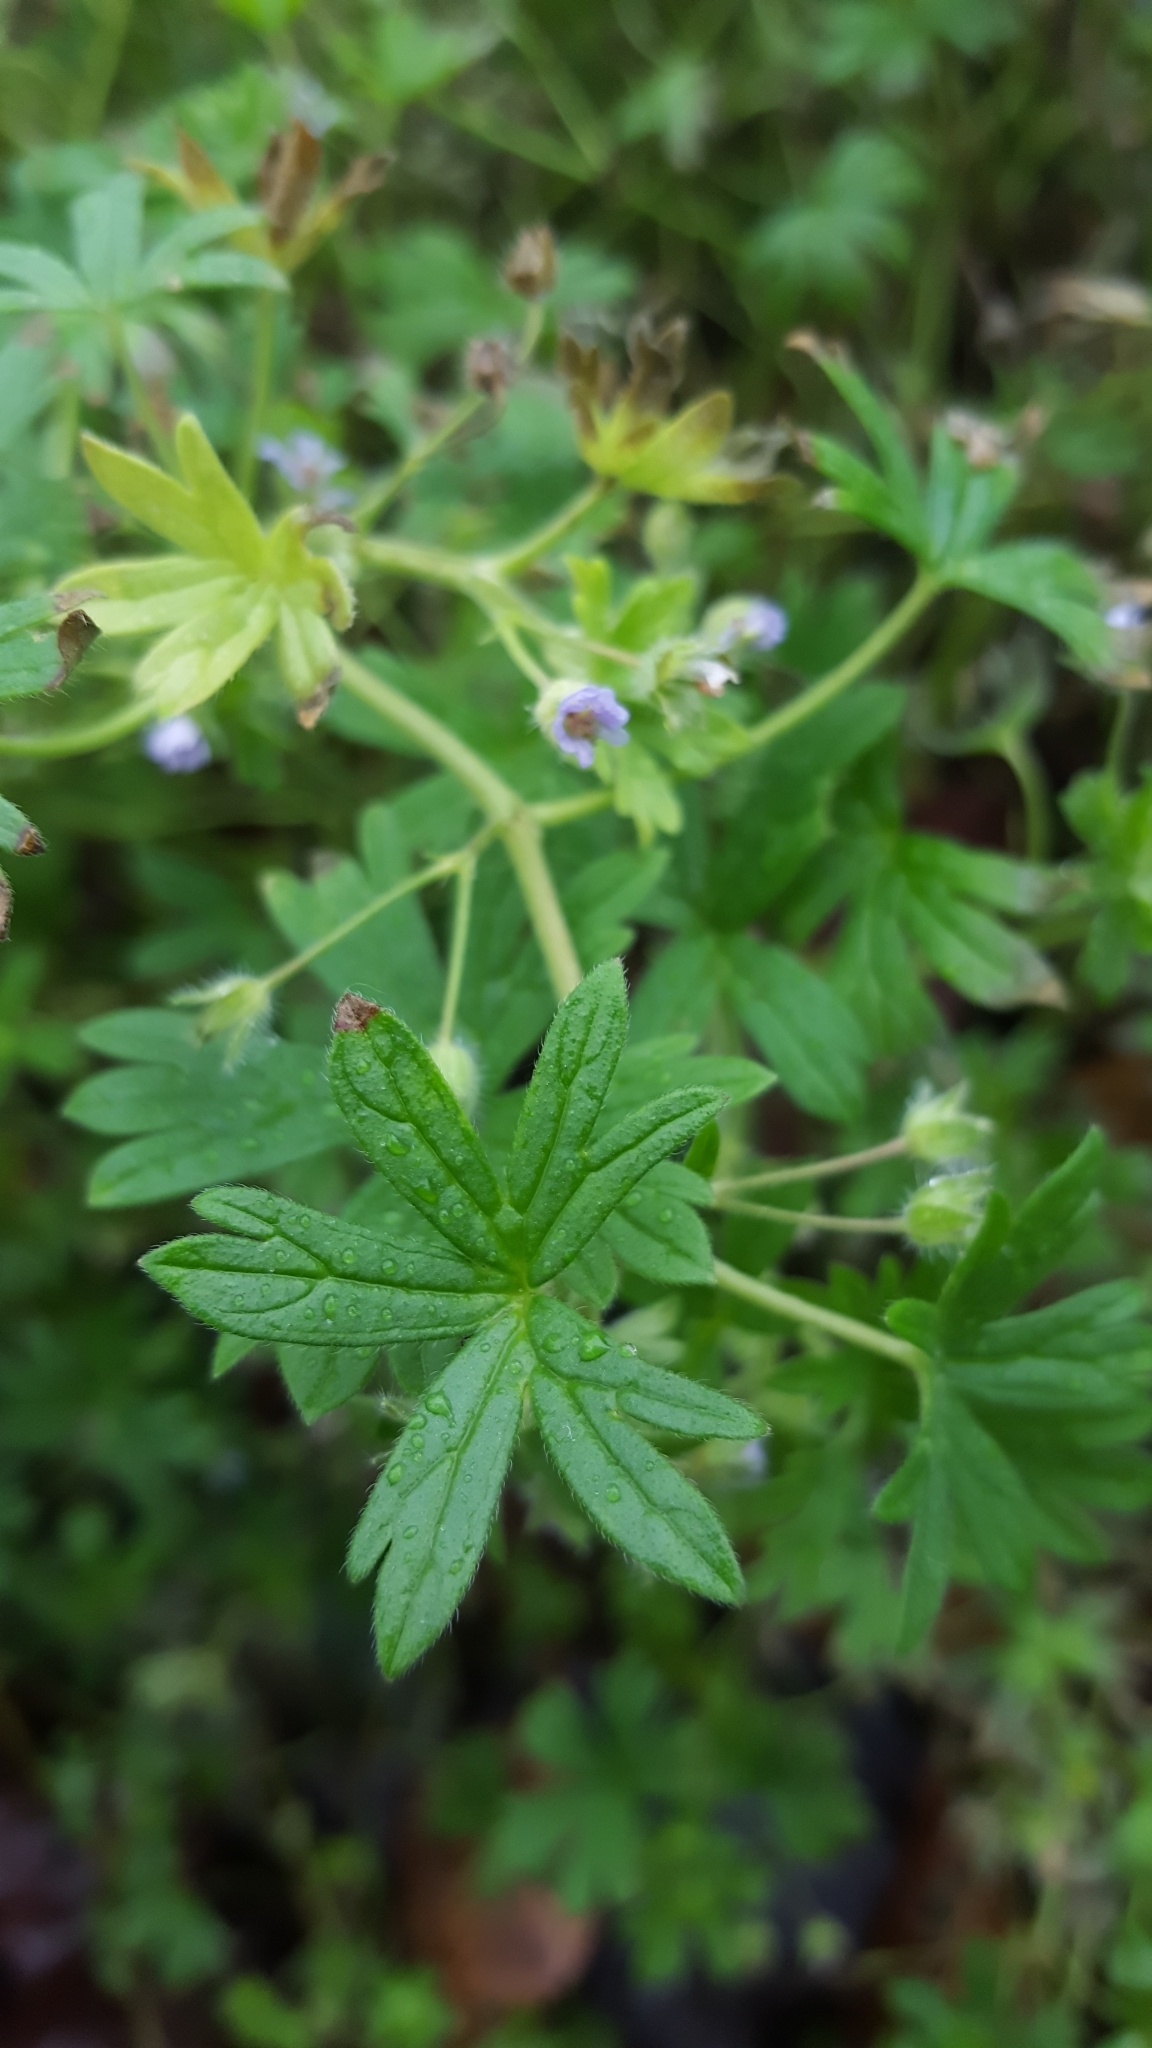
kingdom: Plantae
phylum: Tracheophyta
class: Magnoliopsida
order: Geraniales
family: Geraniaceae
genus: Geranium
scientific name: Geranium pusillum
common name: Small geranium
